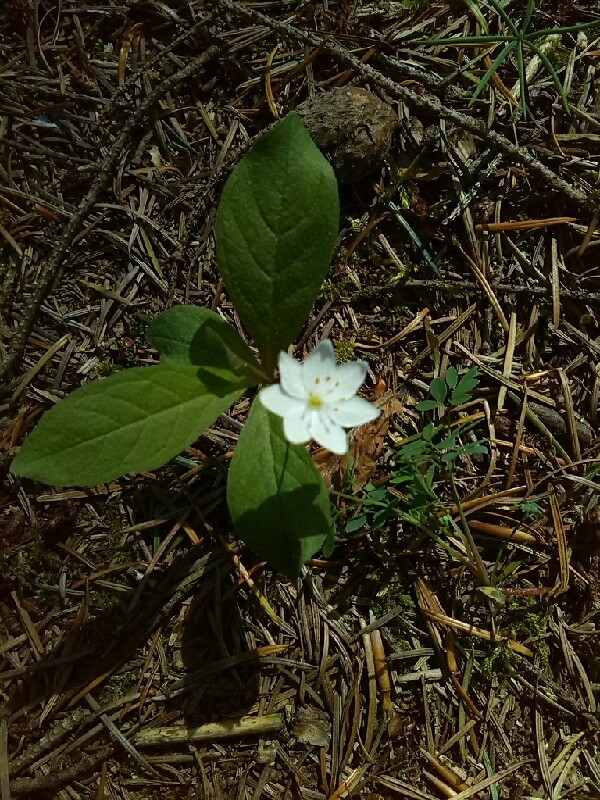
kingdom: Plantae
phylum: Tracheophyta
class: Magnoliopsida
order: Ericales
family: Primulaceae
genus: Lysimachia
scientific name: Lysimachia europaea
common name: Arctic starflower
